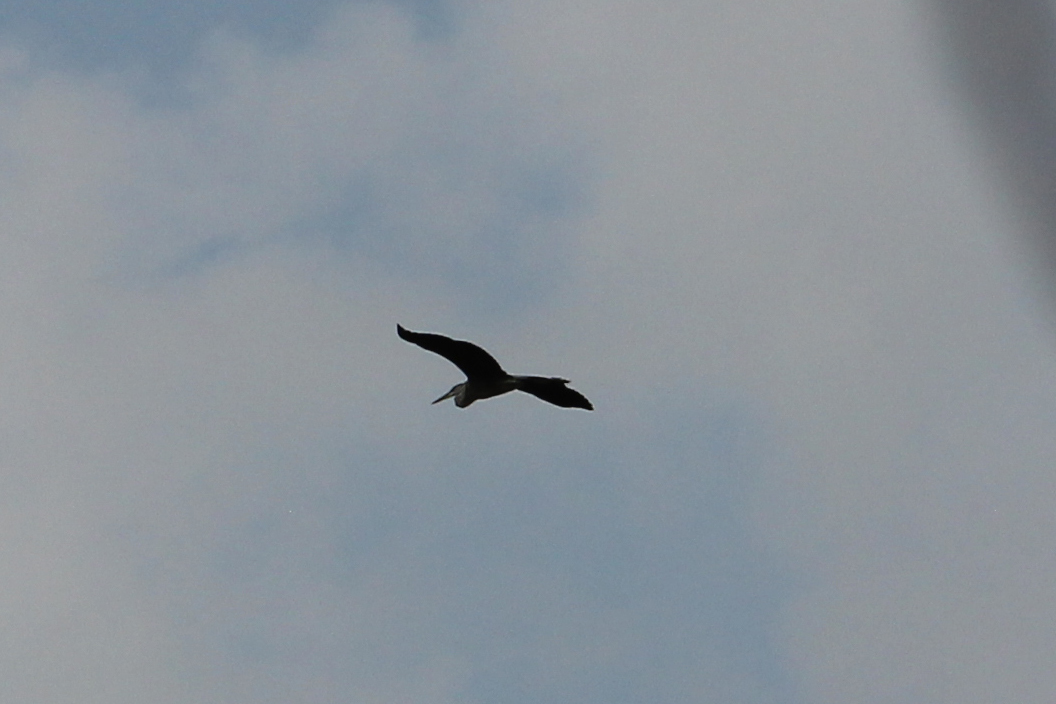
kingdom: Animalia
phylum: Chordata
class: Aves
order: Pelecaniformes
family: Ardeidae
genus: Ardea
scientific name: Ardea herodias
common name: Great blue heron
